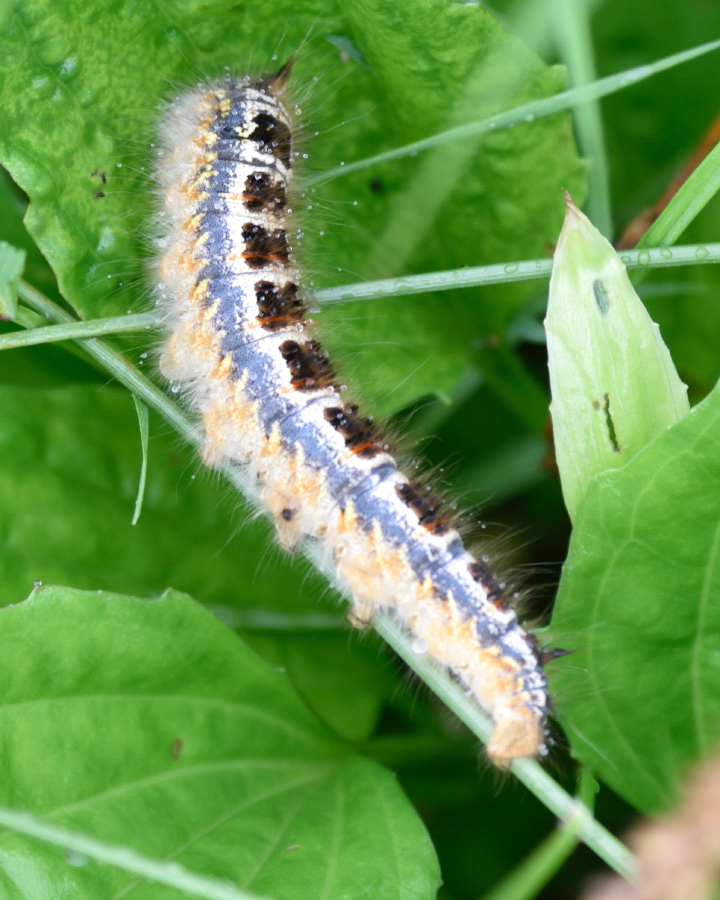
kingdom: Animalia
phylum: Arthropoda
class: Insecta
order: Lepidoptera
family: Lasiocampidae
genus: Euthrix
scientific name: Euthrix potatoria
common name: Drinker
